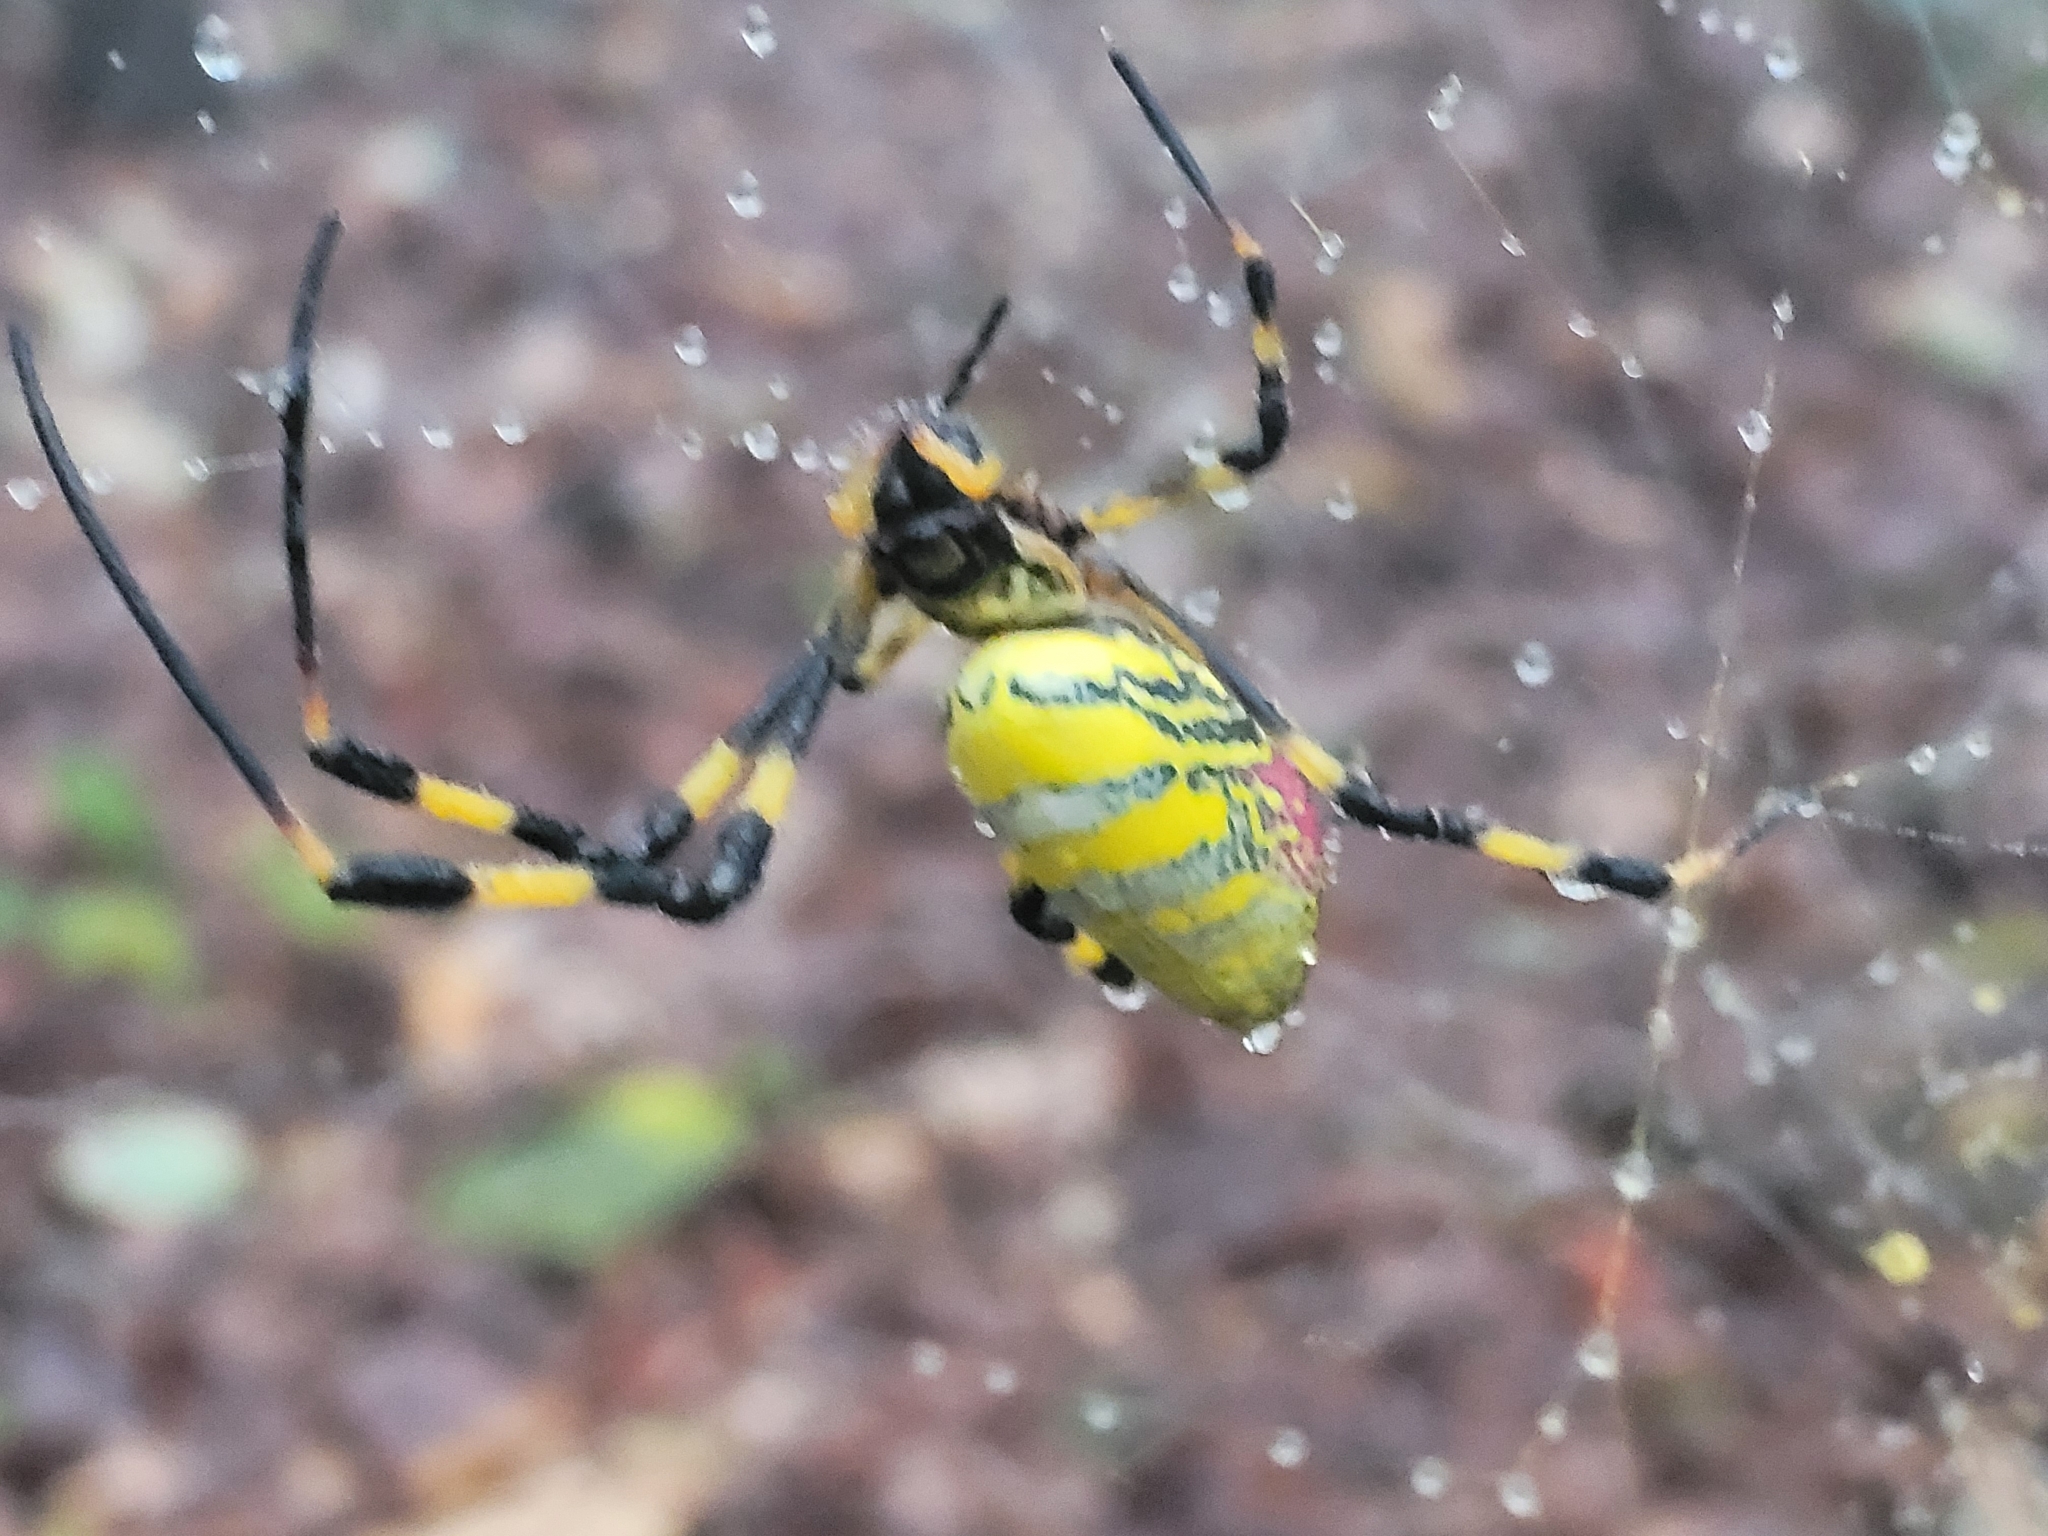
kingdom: Animalia
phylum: Arthropoda
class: Arachnida
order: Araneae
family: Araneidae
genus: Trichonephila
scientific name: Trichonephila clavata
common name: Jorō spider
